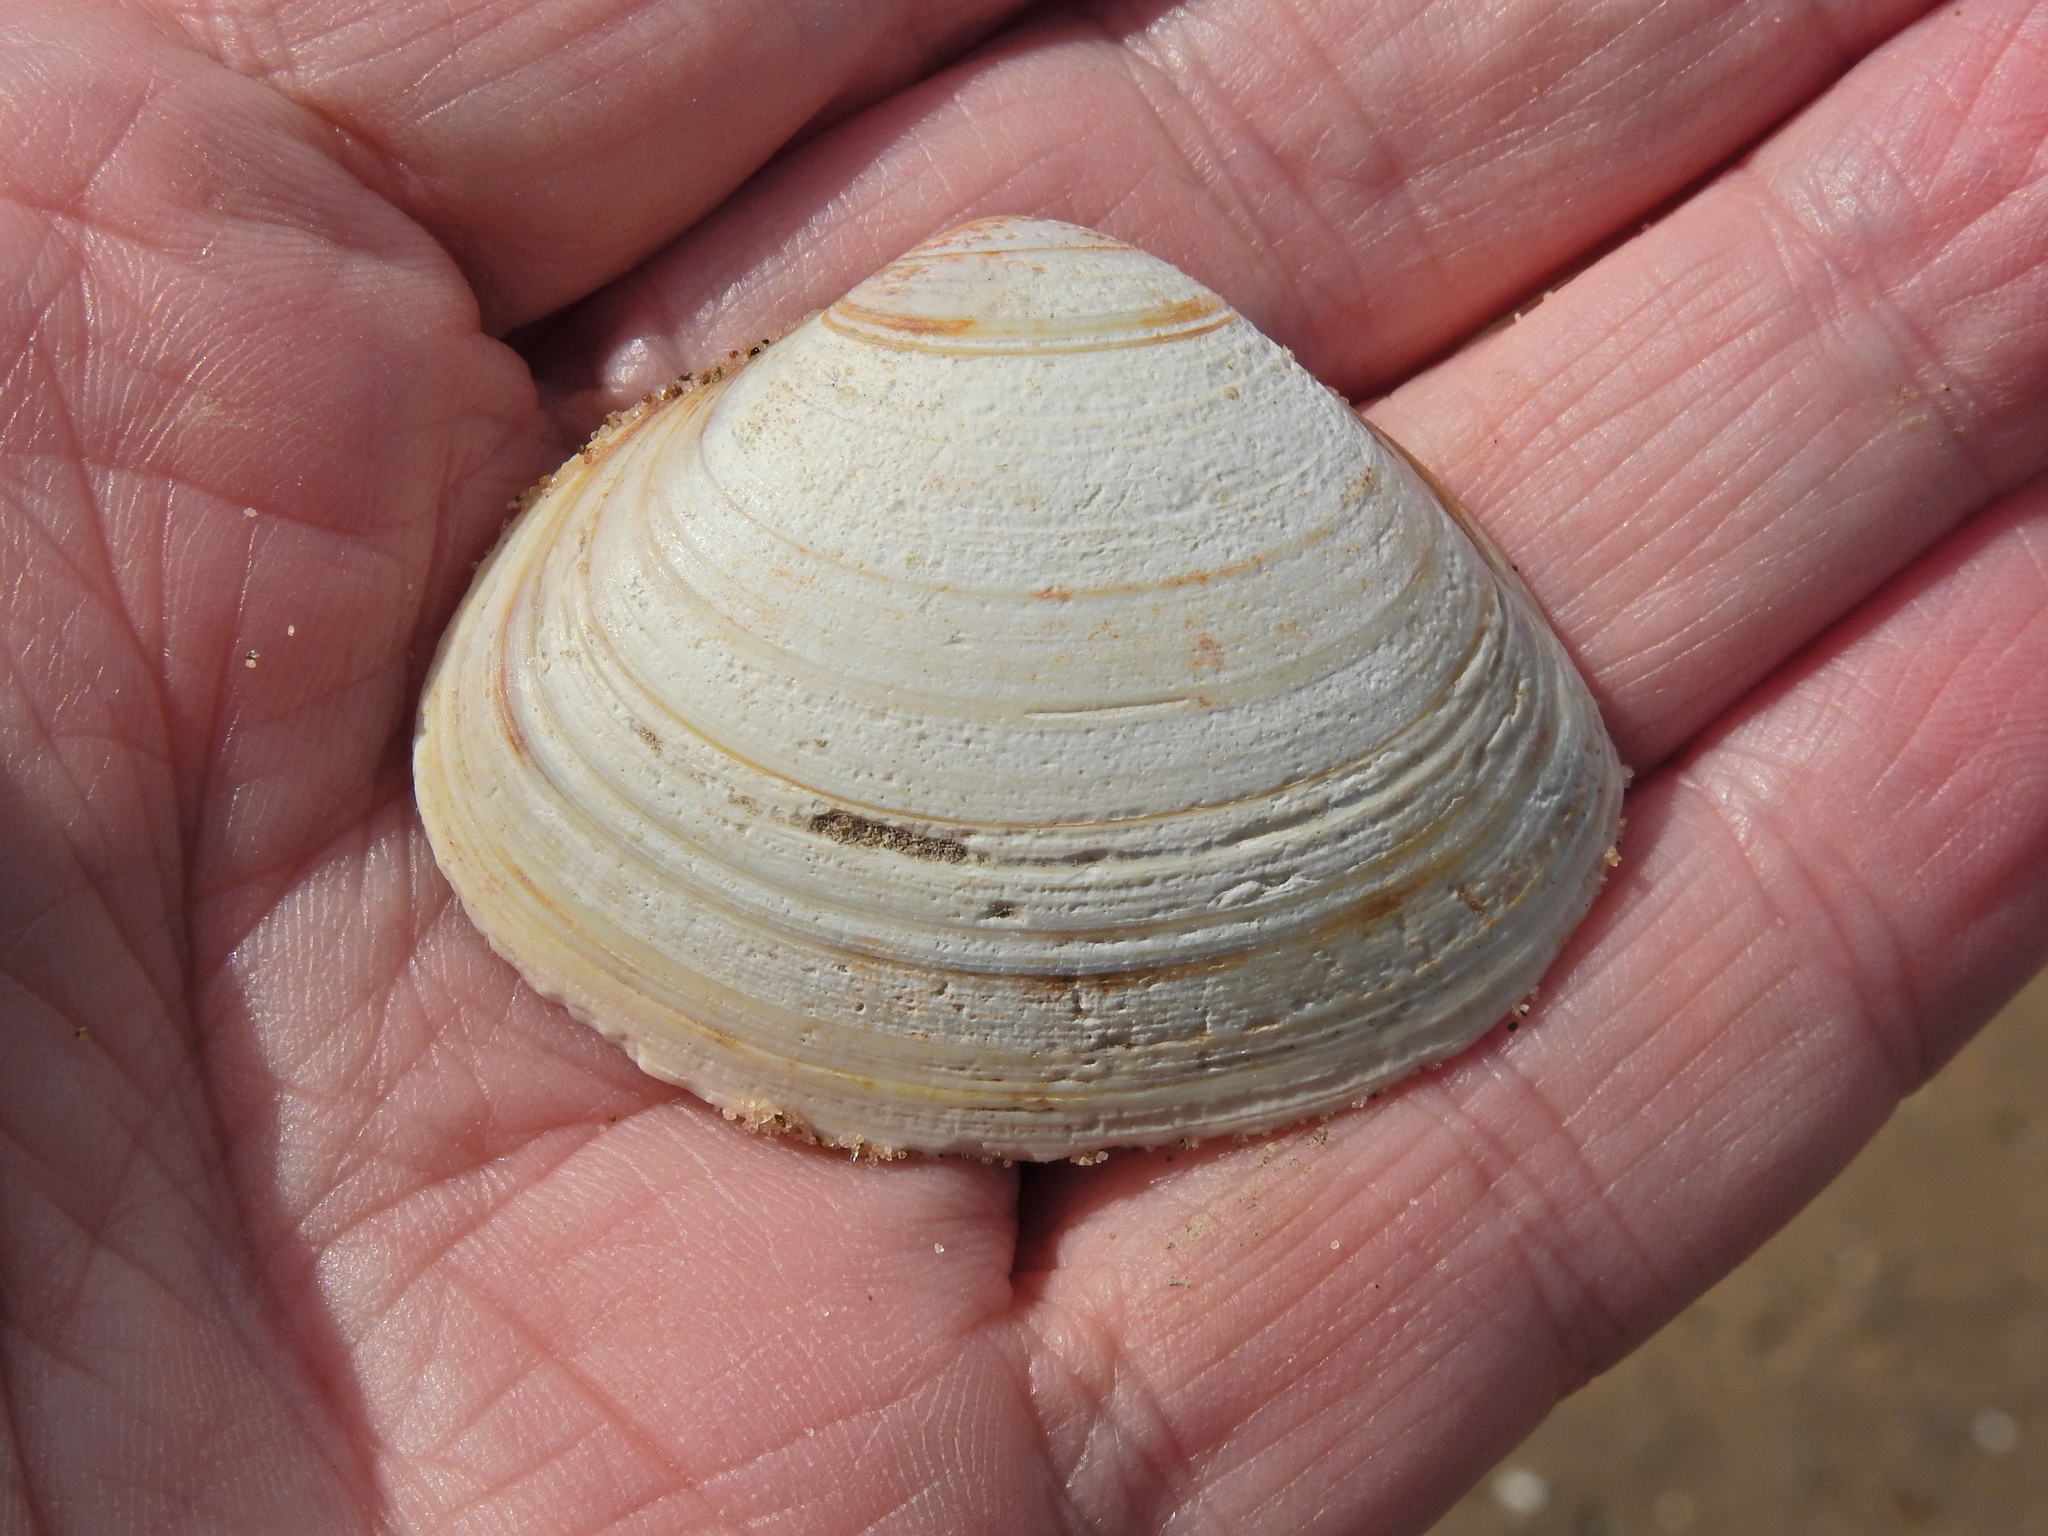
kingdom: Animalia
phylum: Mollusca
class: Bivalvia
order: Venerida
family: Mactridae
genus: Spisula
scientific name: Spisula solida
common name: Thick trough shell
